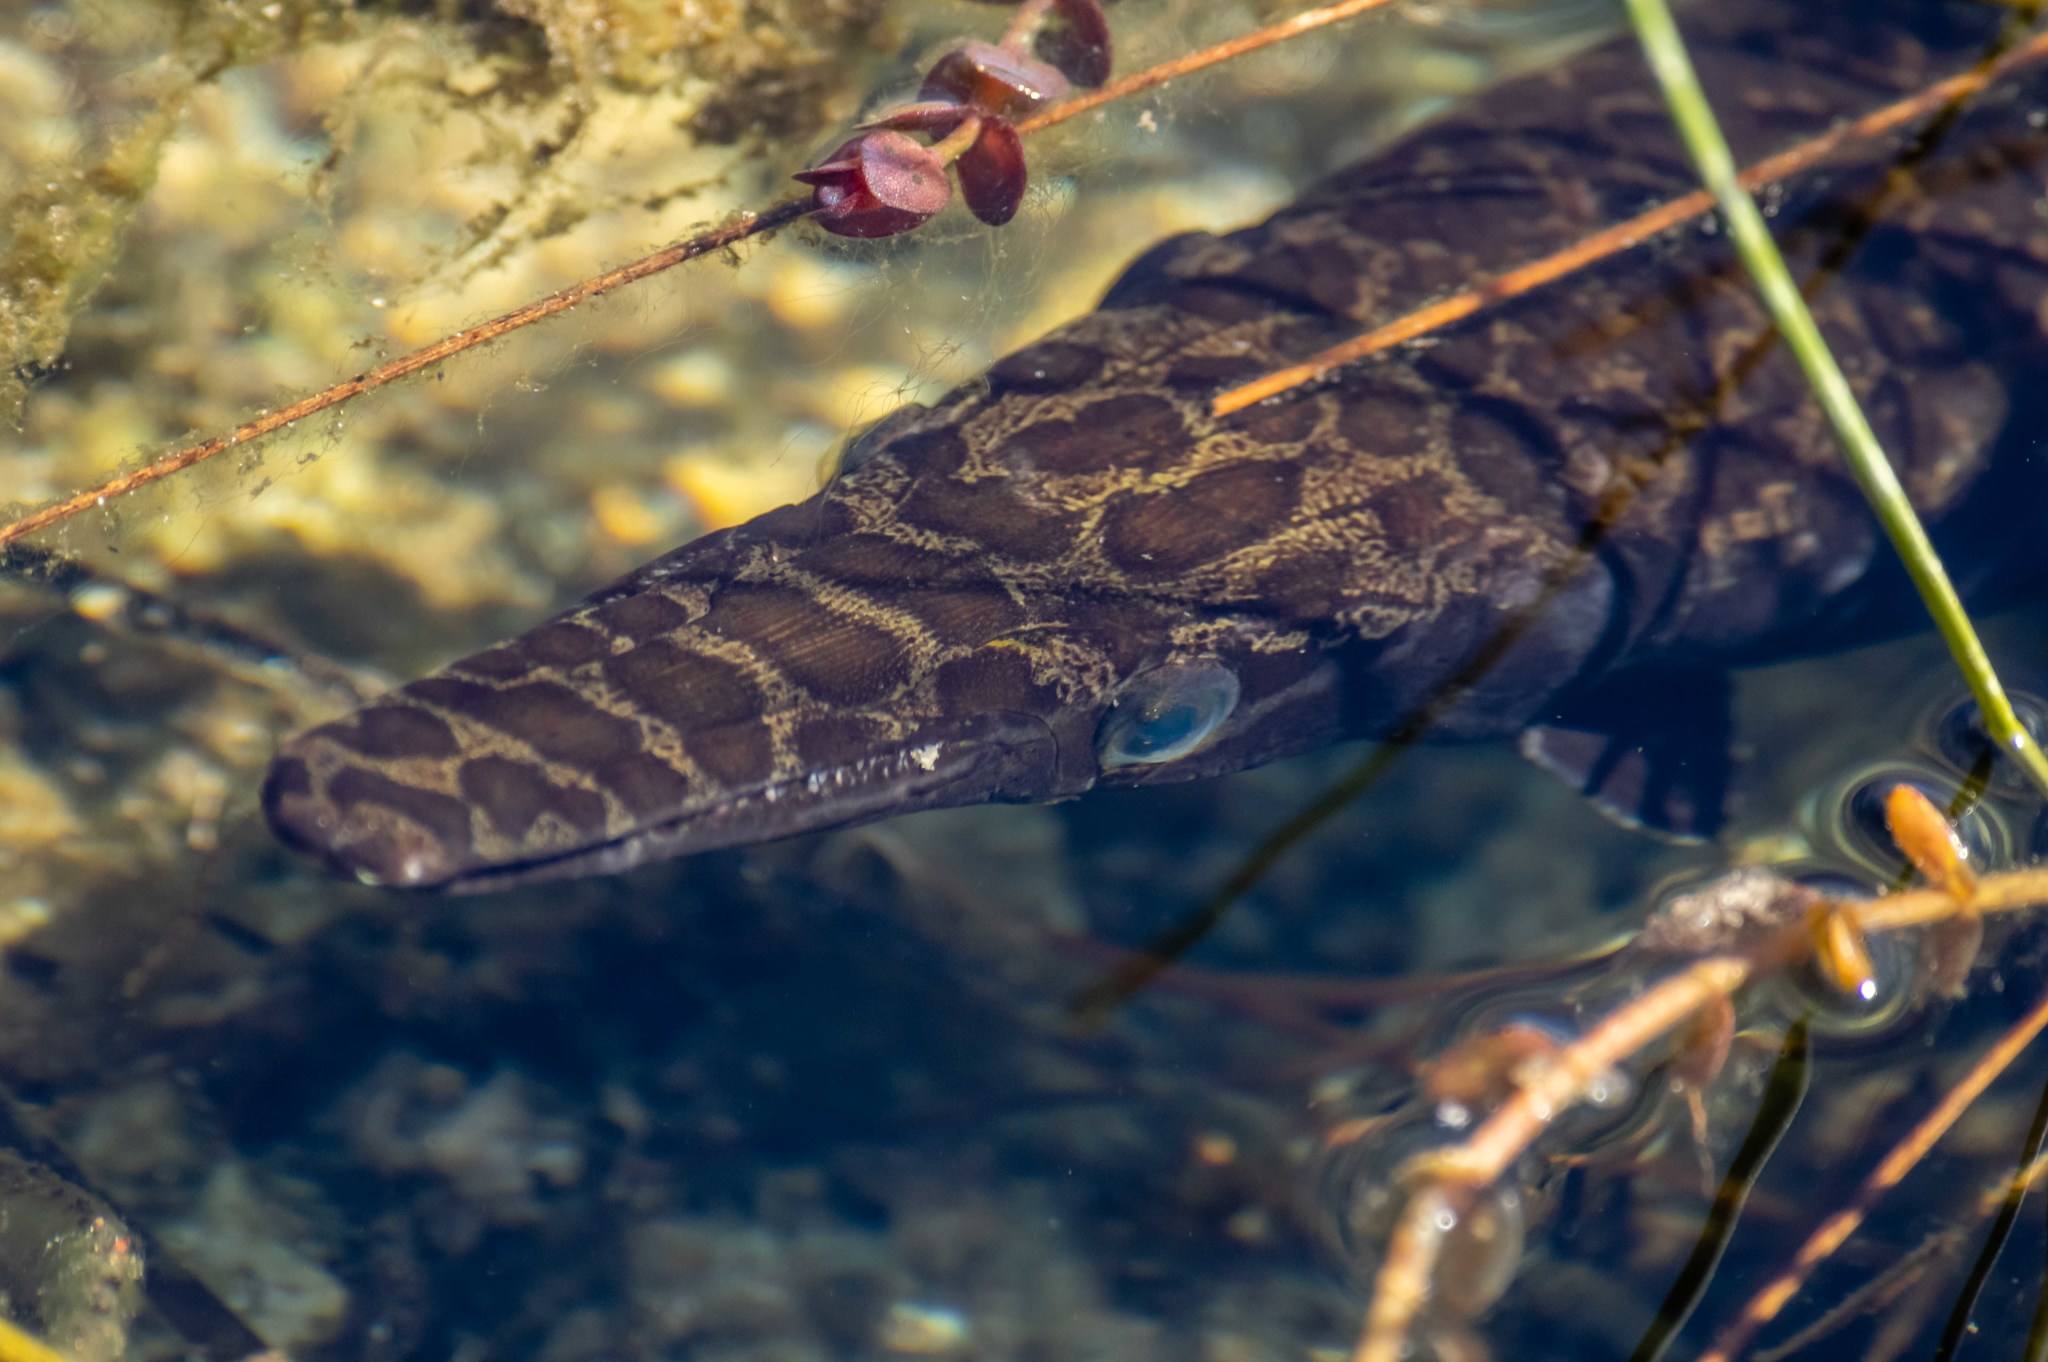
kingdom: Animalia
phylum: Chordata
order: Lepisosteiformes
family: Lepisosteidae
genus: Lepisosteus
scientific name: Lepisosteus platyrhincus
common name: Florida gar
